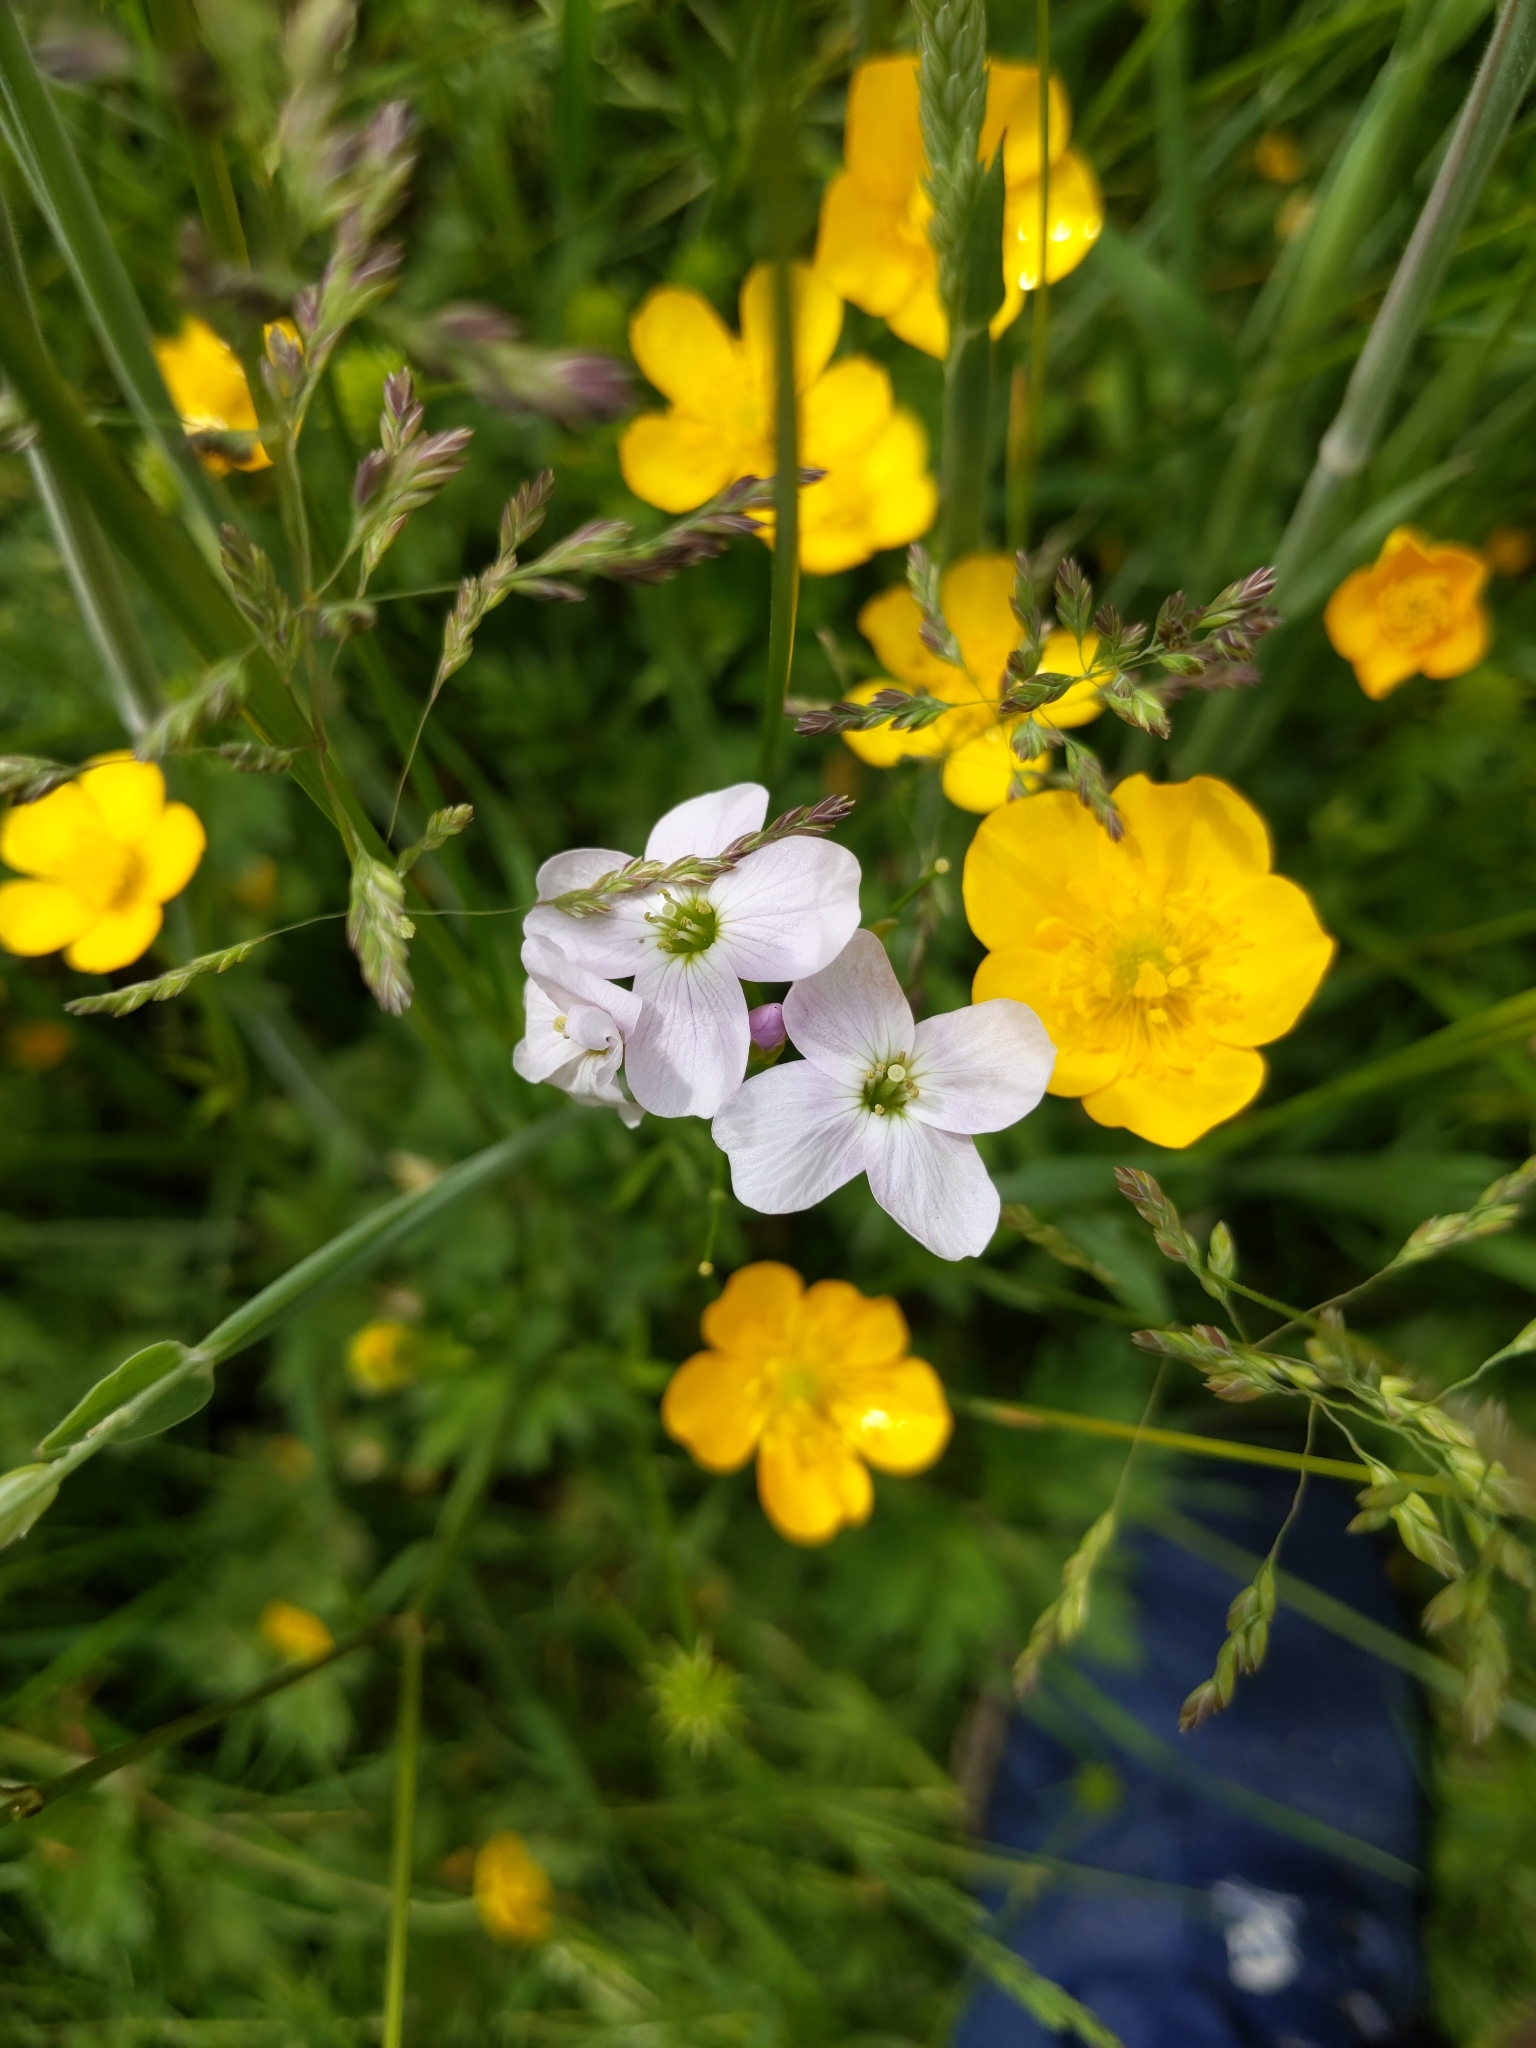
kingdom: Plantae
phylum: Tracheophyta
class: Magnoliopsida
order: Brassicales
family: Brassicaceae
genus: Cardamine
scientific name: Cardamine pratensis
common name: Cuckoo flower
